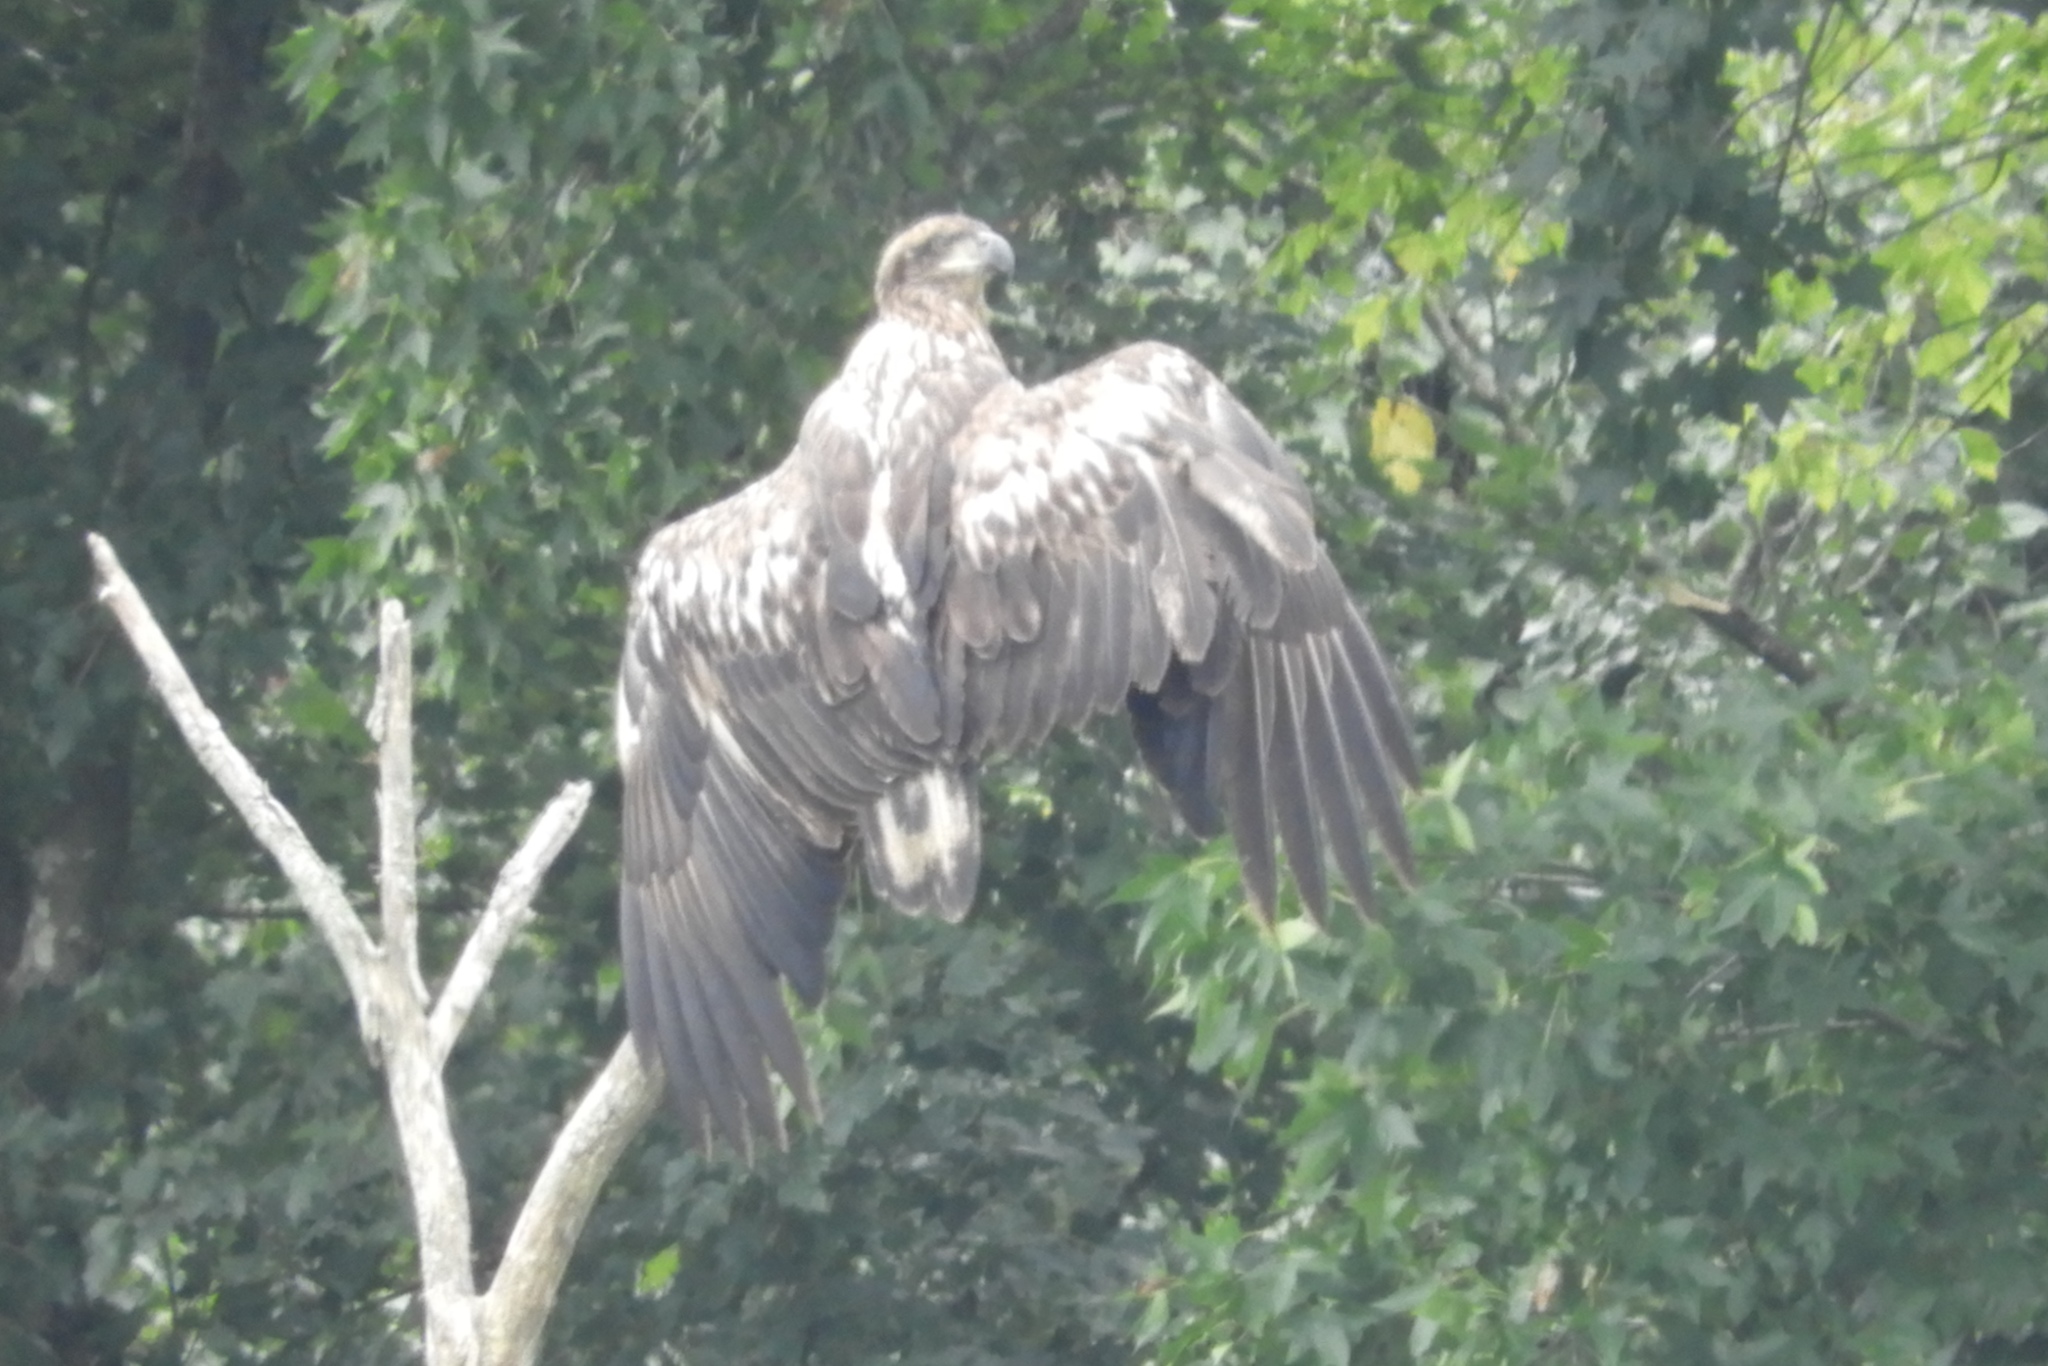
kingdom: Animalia
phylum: Chordata
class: Aves
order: Accipitriformes
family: Accipitridae
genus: Haliaeetus
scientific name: Haliaeetus leucocephalus
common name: Bald eagle
